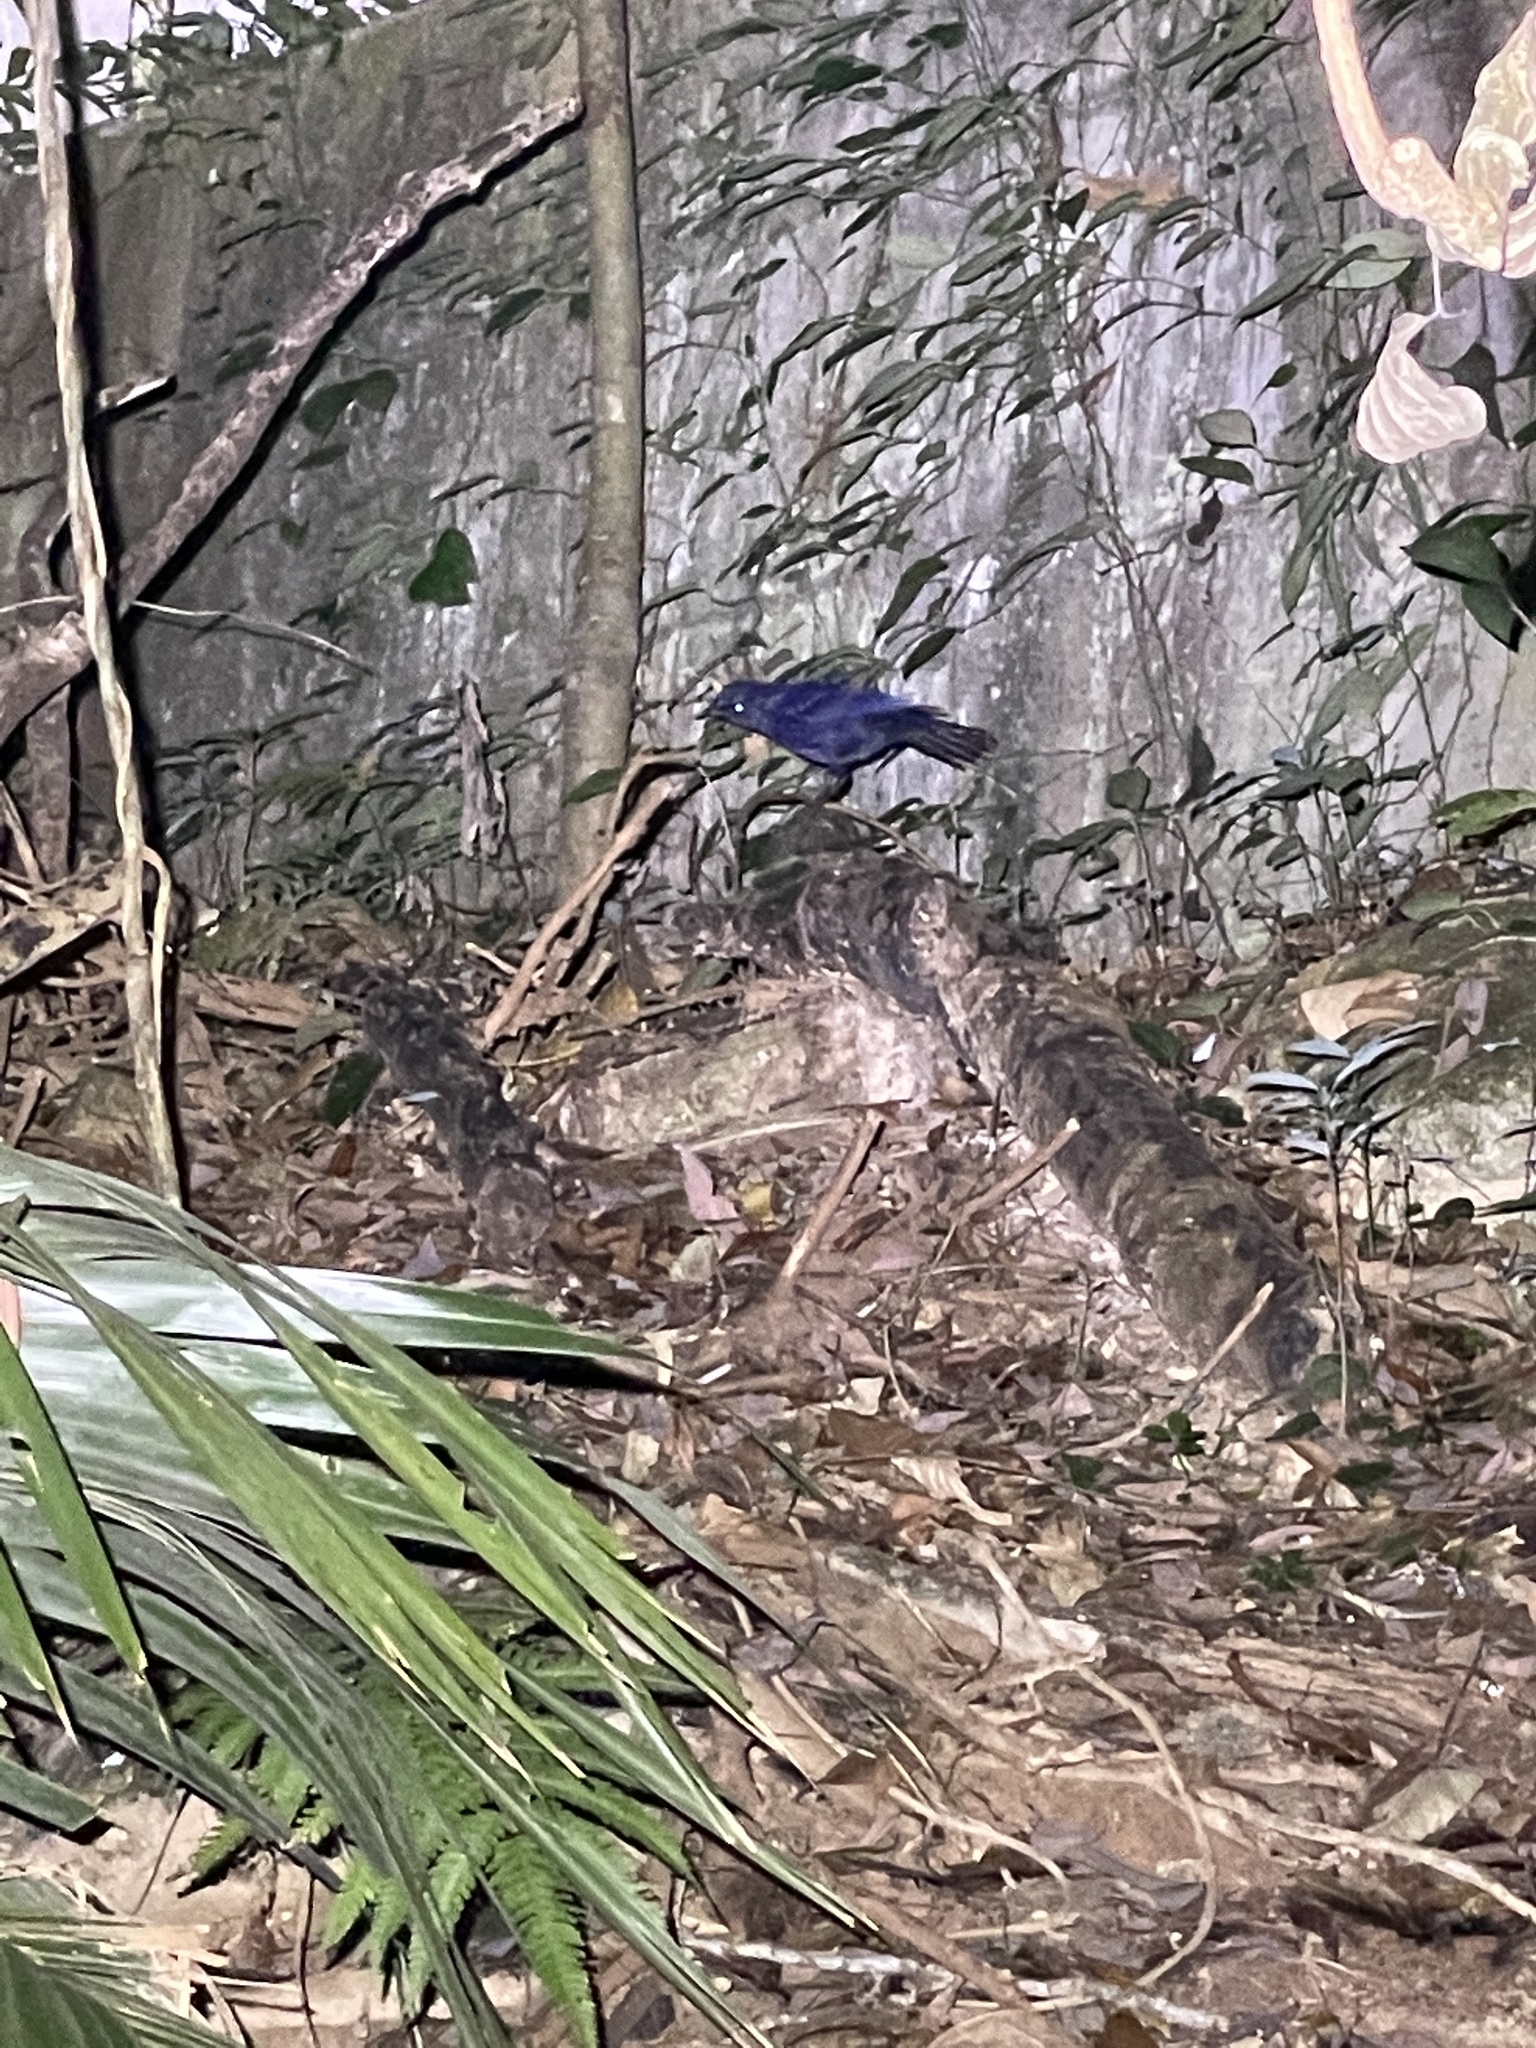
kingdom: Animalia
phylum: Chordata
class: Aves
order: Passeriformes
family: Muscicapidae
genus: Myophonus
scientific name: Myophonus caeruleus
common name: Blue whistling-thrush
